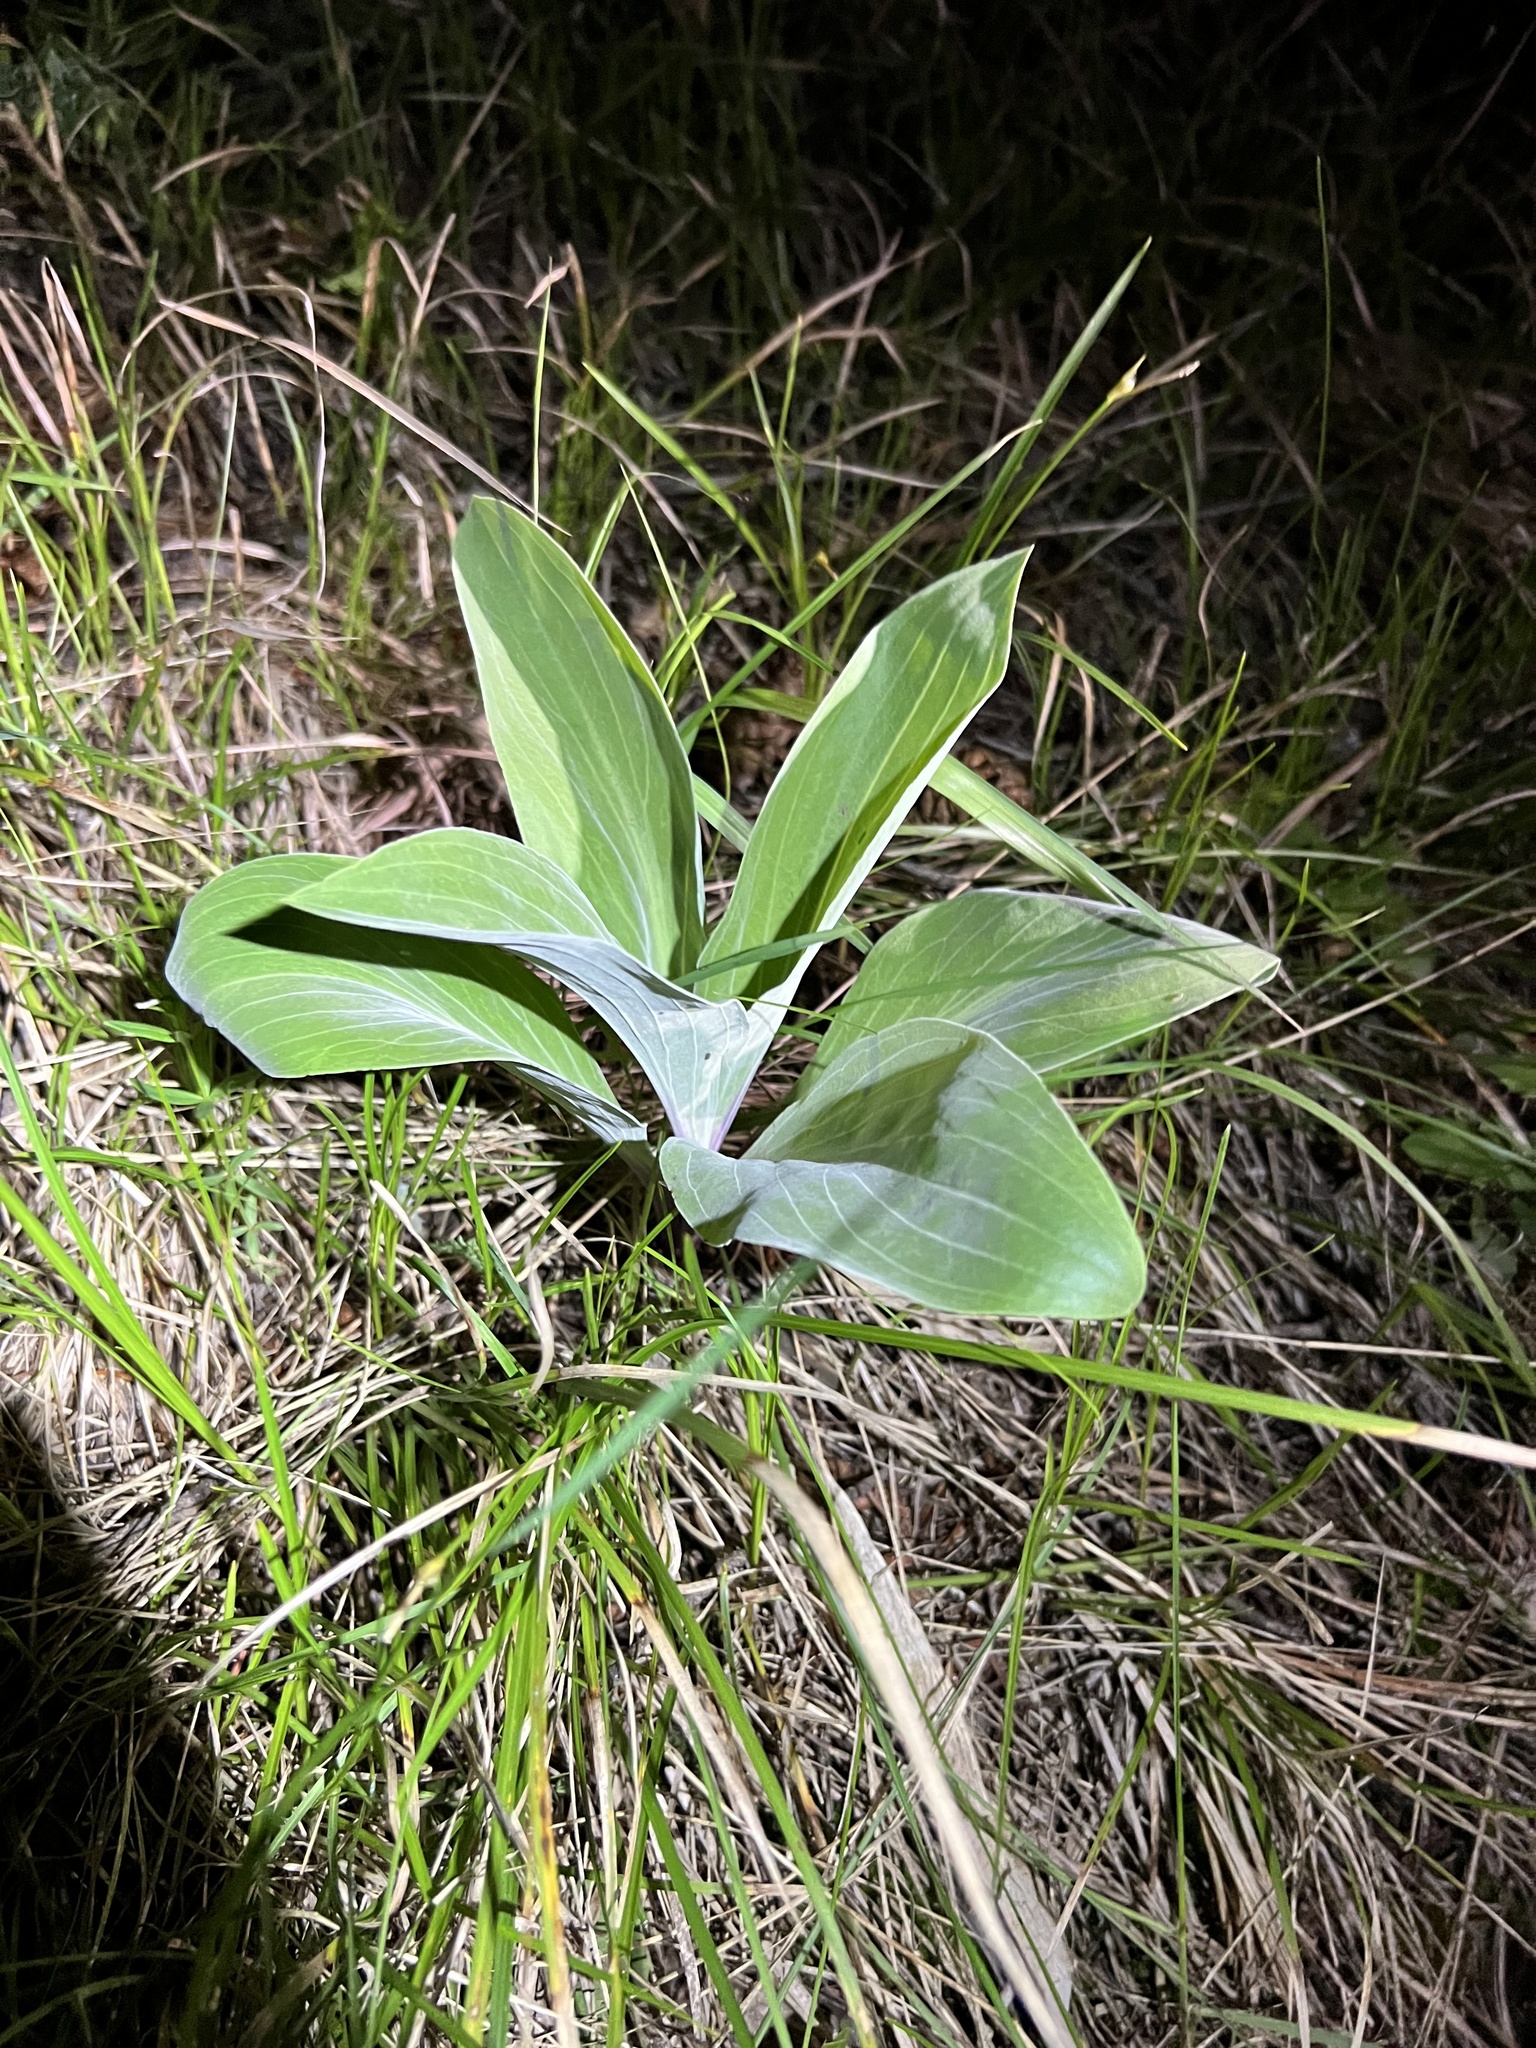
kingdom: Plantae
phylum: Tracheophyta
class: Magnoliopsida
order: Gentianales
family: Gentianaceae
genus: Frasera
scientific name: Frasera speciosa
